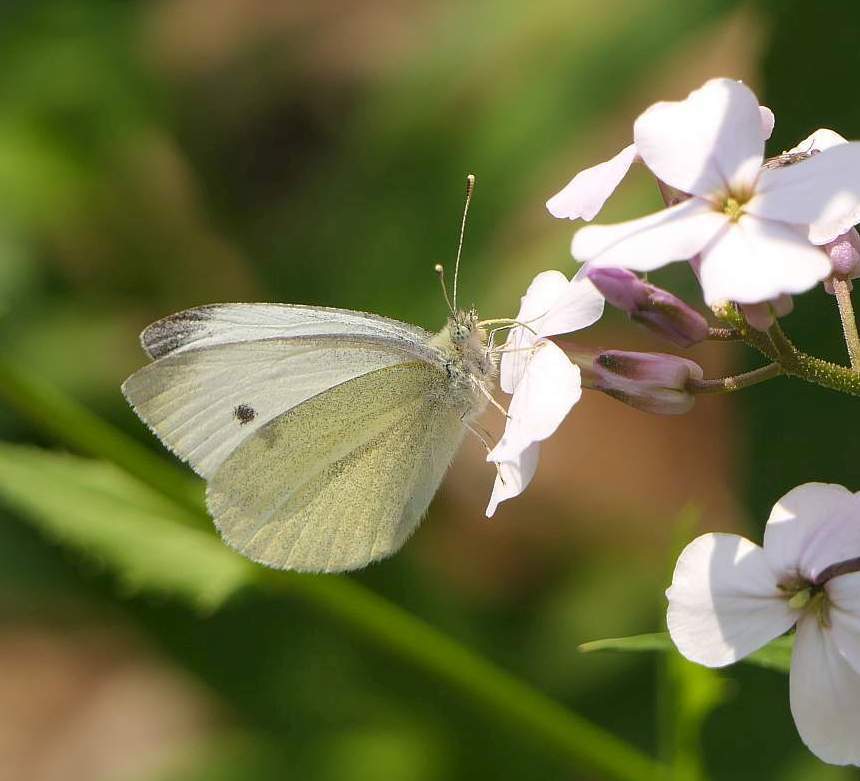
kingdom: Animalia
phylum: Arthropoda
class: Insecta
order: Lepidoptera
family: Pieridae
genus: Pieris
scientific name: Pieris rapae
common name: Small white
